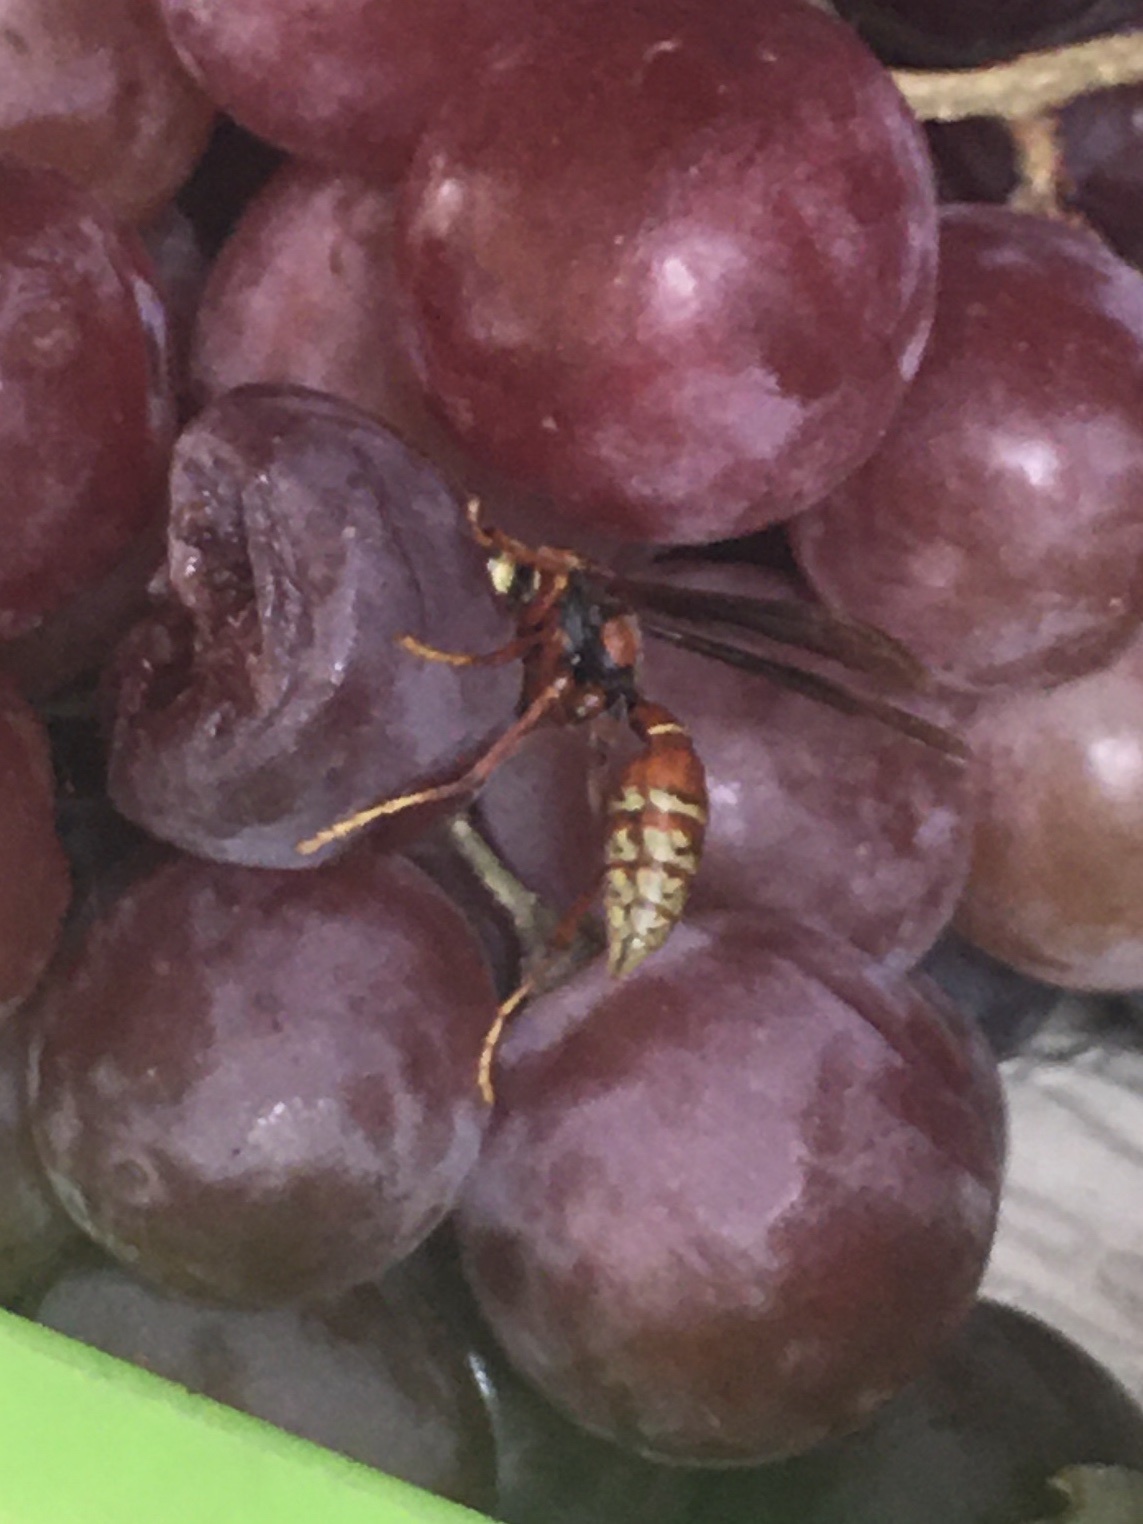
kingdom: Animalia
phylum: Arthropoda
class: Insecta
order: Hymenoptera
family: Eumenidae
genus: Polistes
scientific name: Polistes cavapyta
